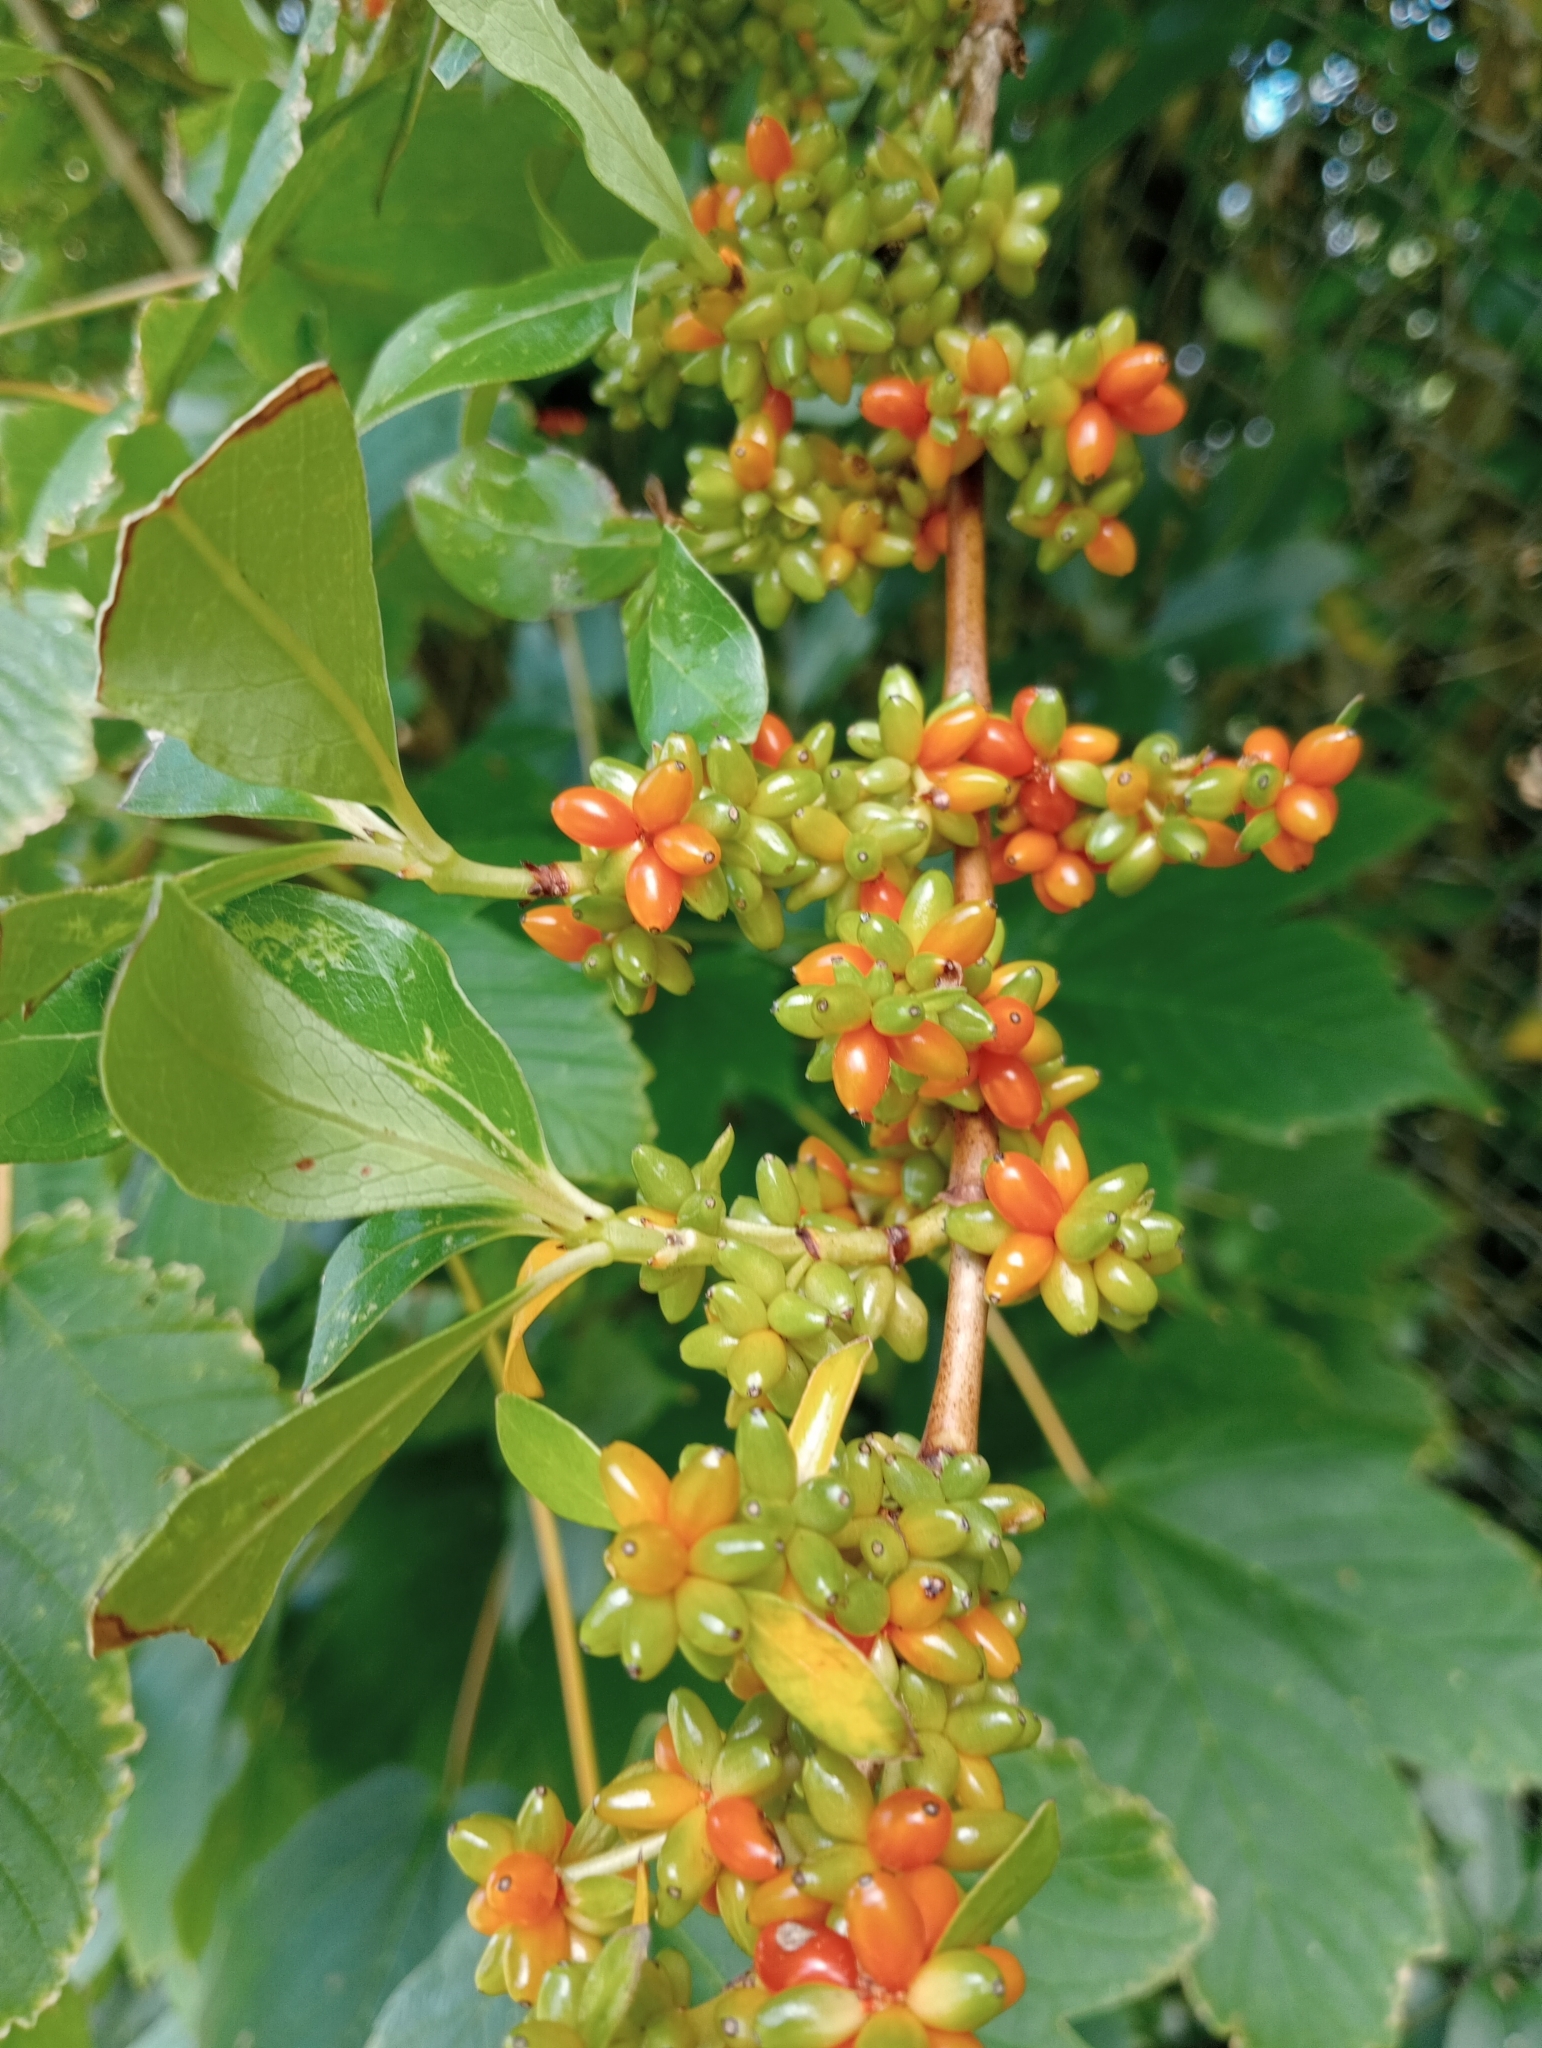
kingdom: Plantae
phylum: Tracheophyta
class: Magnoliopsida
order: Gentianales
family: Rubiaceae
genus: Coprosma
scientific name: Coprosma robusta
